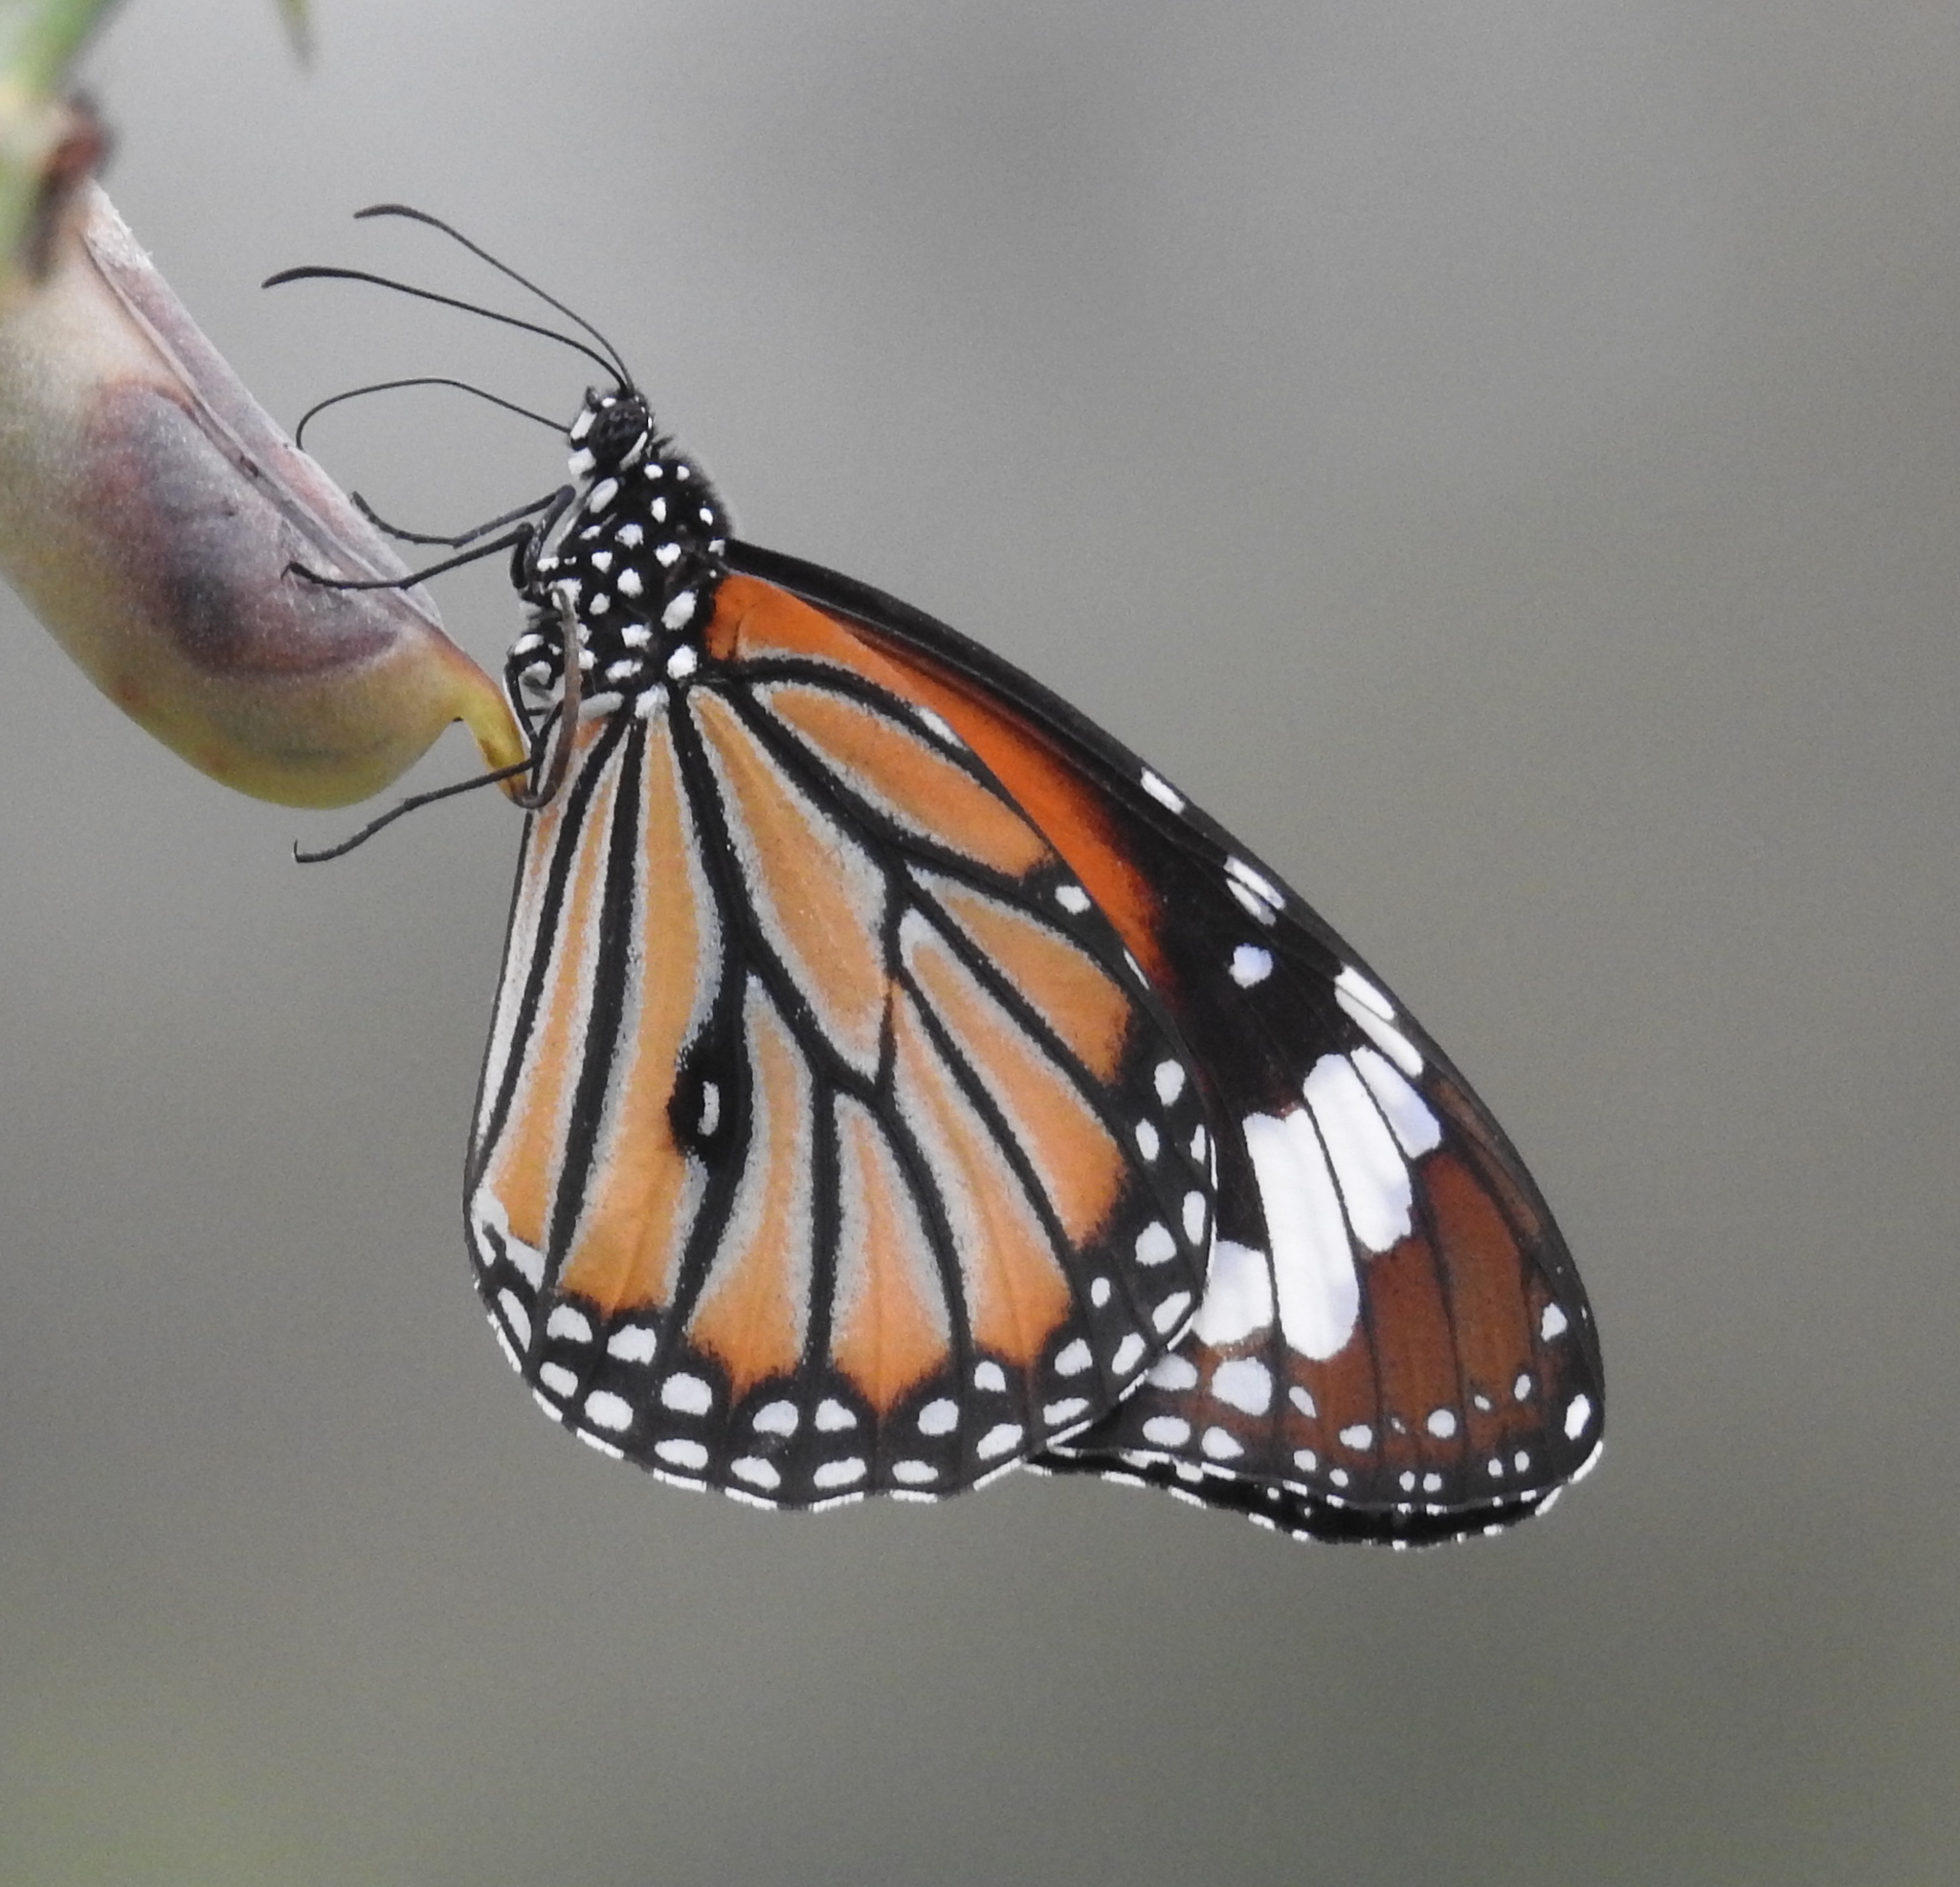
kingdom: Animalia
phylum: Arthropoda
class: Insecta
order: Lepidoptera
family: Nymphalidae
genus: Danaus
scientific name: Danaus genutia
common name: Common tiger butterfly
